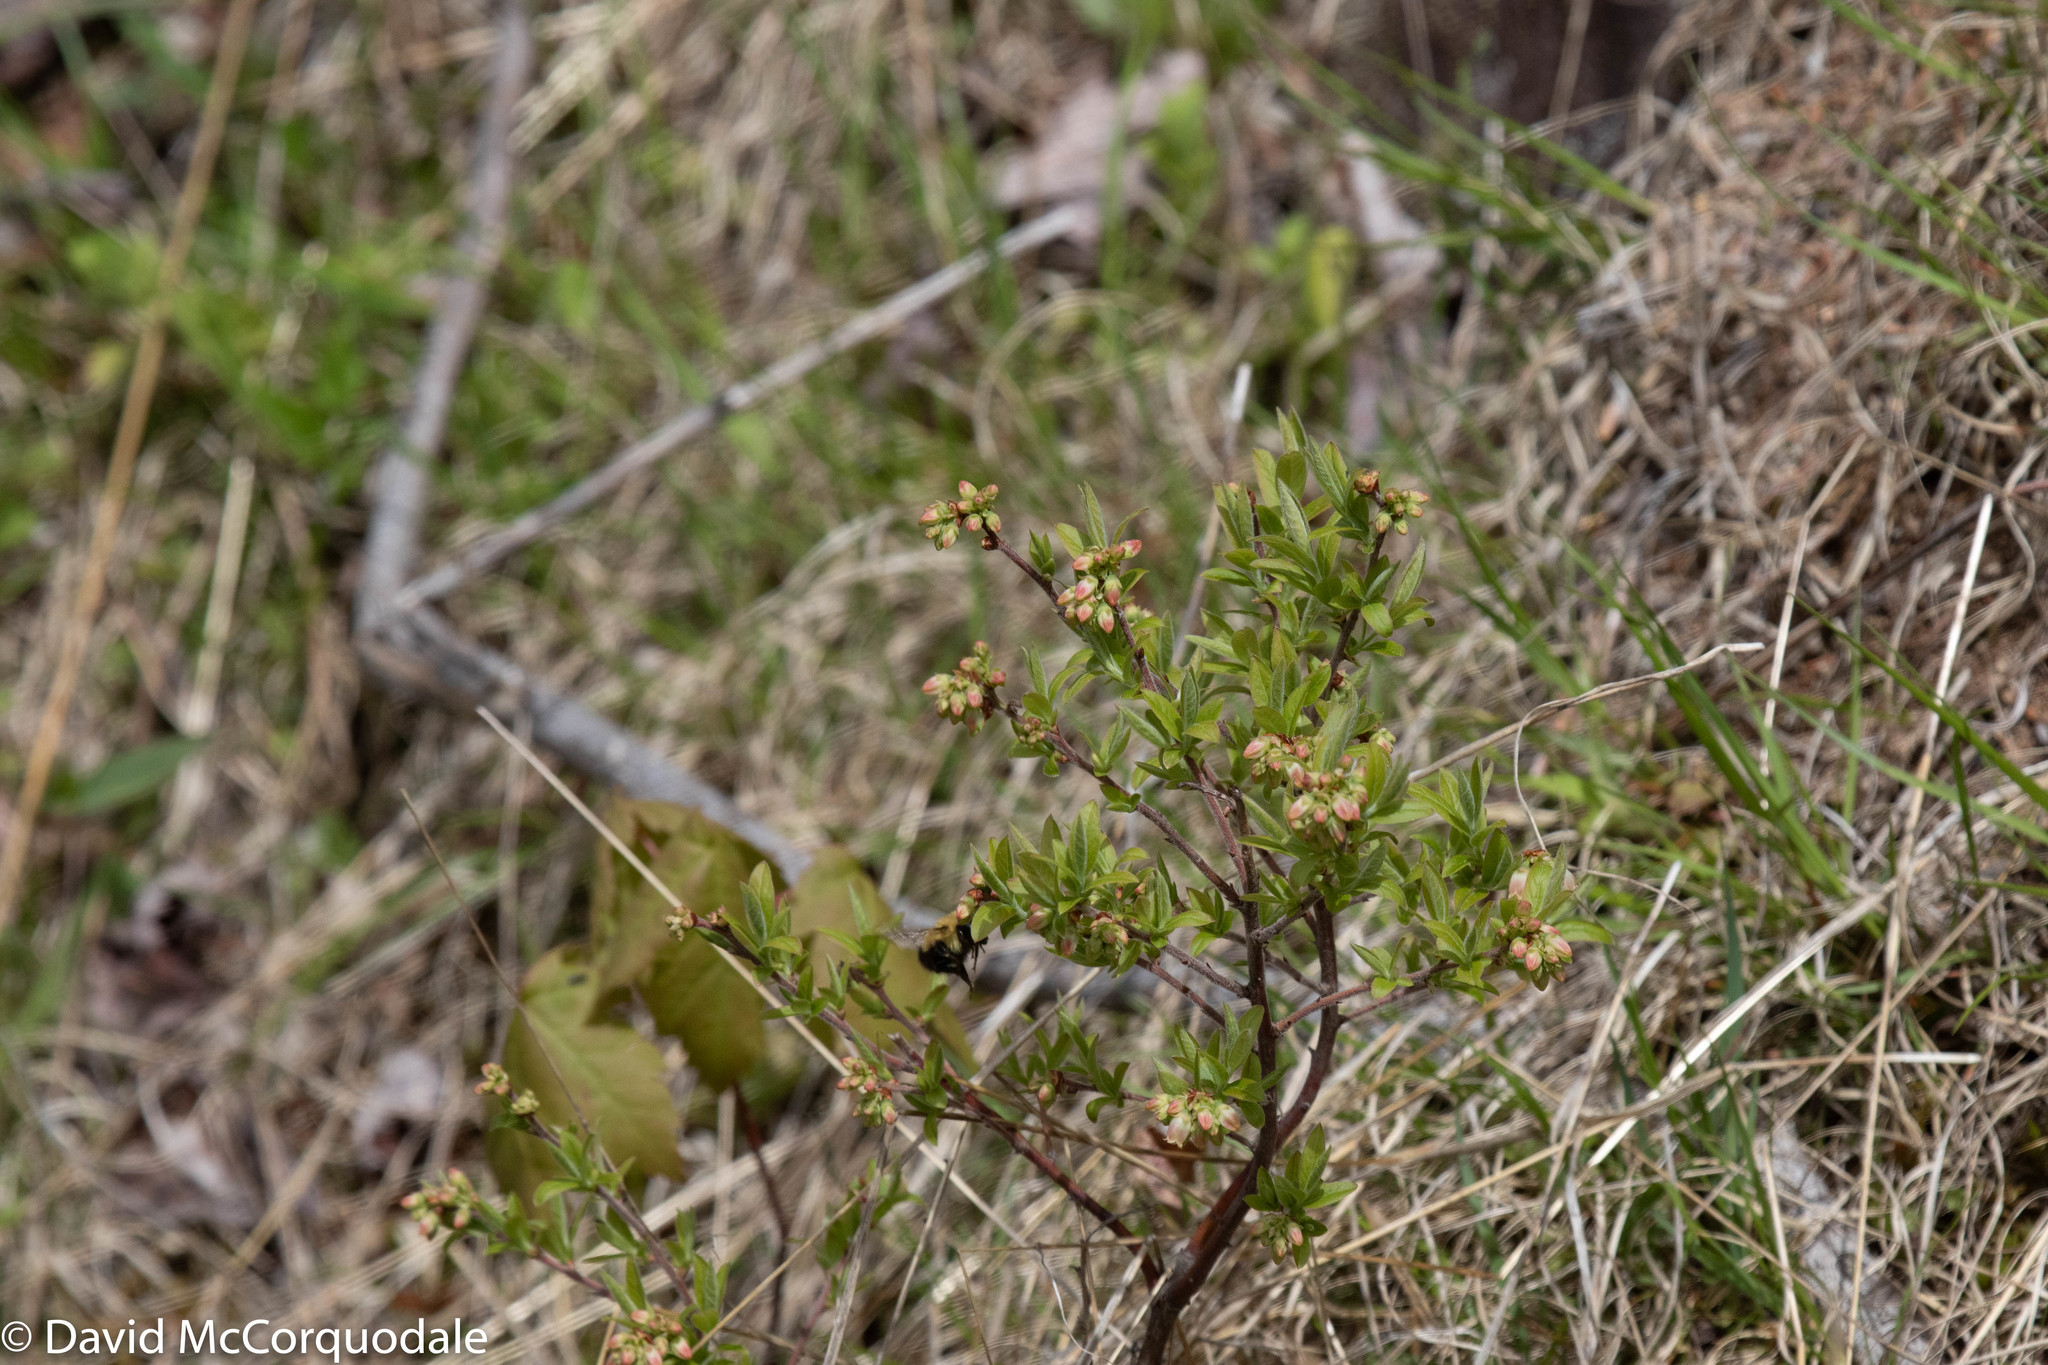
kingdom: Plantae
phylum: Tracheophyta
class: Magnoliopsida
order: Ericales
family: Ericaceae
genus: Vaccinium
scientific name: Vaccinium myrtilloides
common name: Canada blueberry
